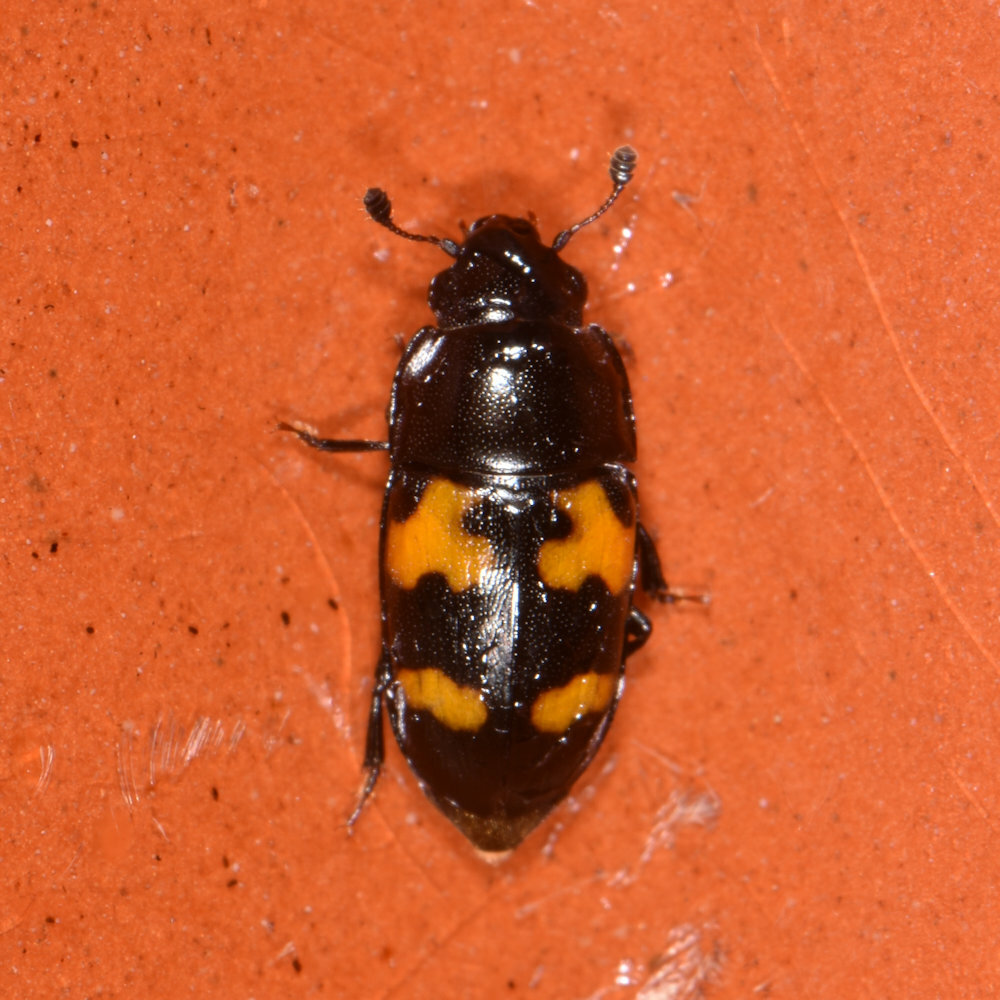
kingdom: Animalia
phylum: Arthropoda
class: Insecta
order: Coleoptera
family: Nitidulidae
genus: Glischrochilus
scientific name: Glischrochilus fasciatus
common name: Picnic beetle
